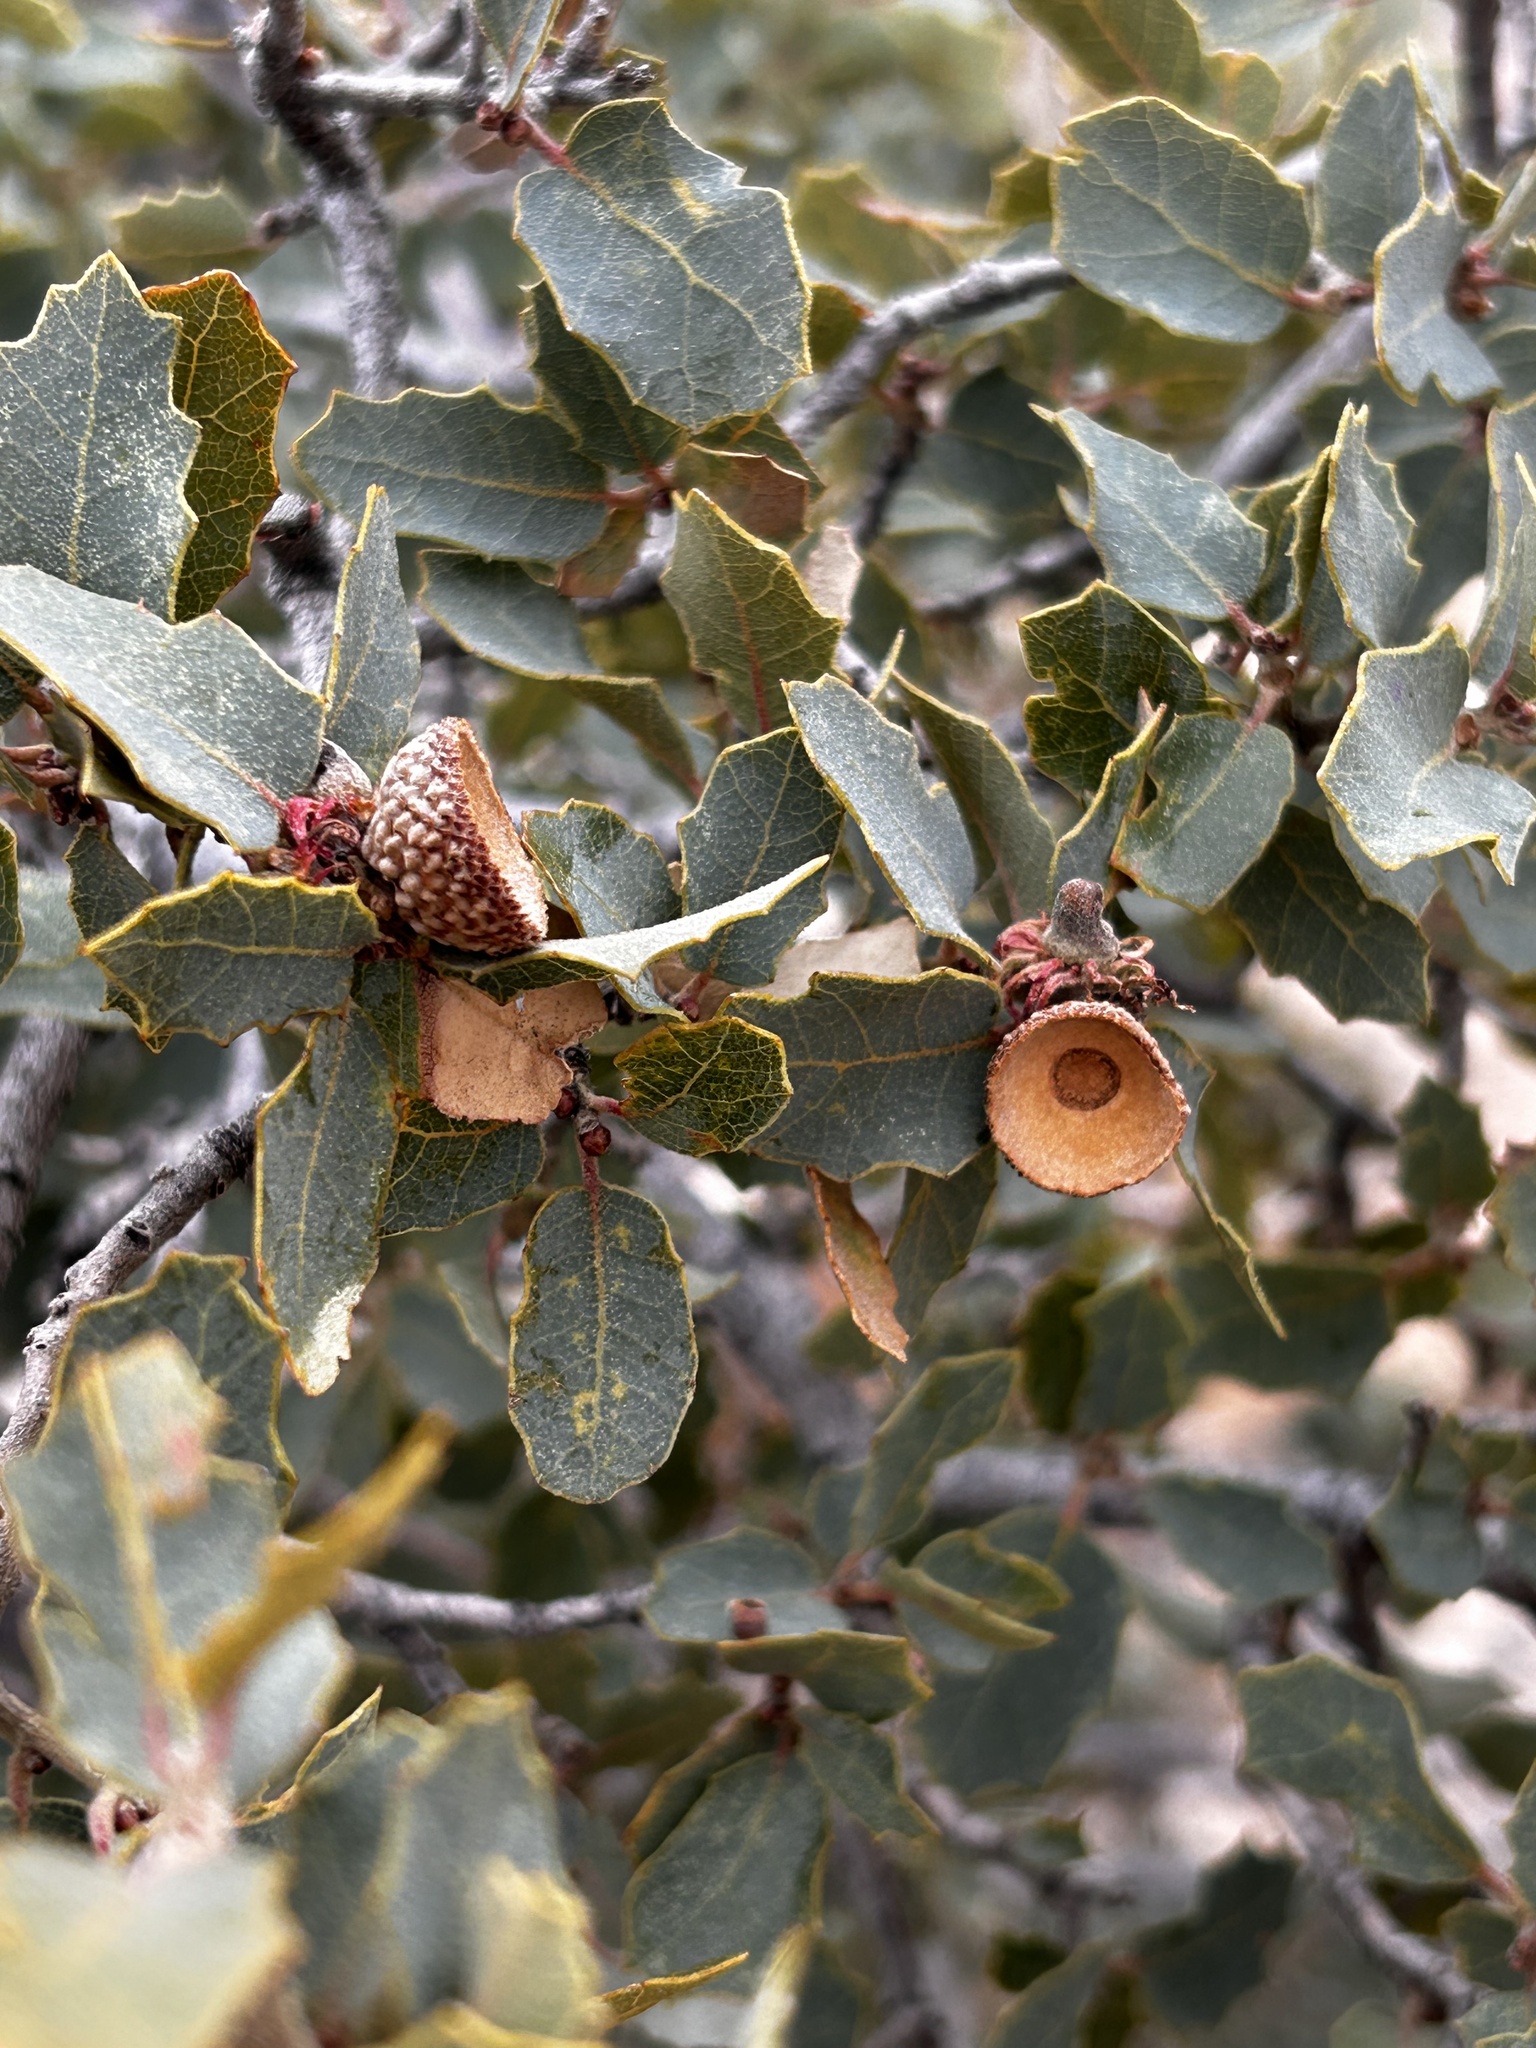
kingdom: Plantae
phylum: Tracheophyta
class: Magnoliopsida
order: Fagales
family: Fagaceae
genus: Quercus
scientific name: Quercus turbinella
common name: Sonoran scrub oak
